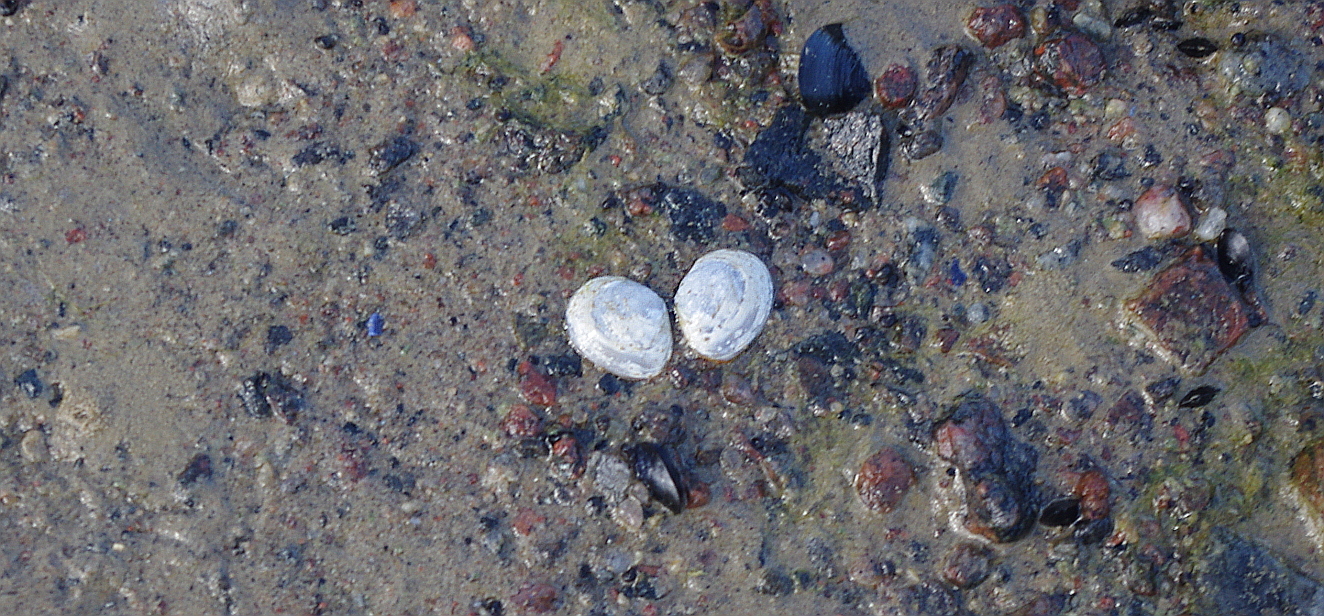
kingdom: Animalia
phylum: Mollusca
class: Bivalvia
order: Cardiida
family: Tellinidae
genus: Macoma
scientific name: Macoma balthica
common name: Baltic tellin
